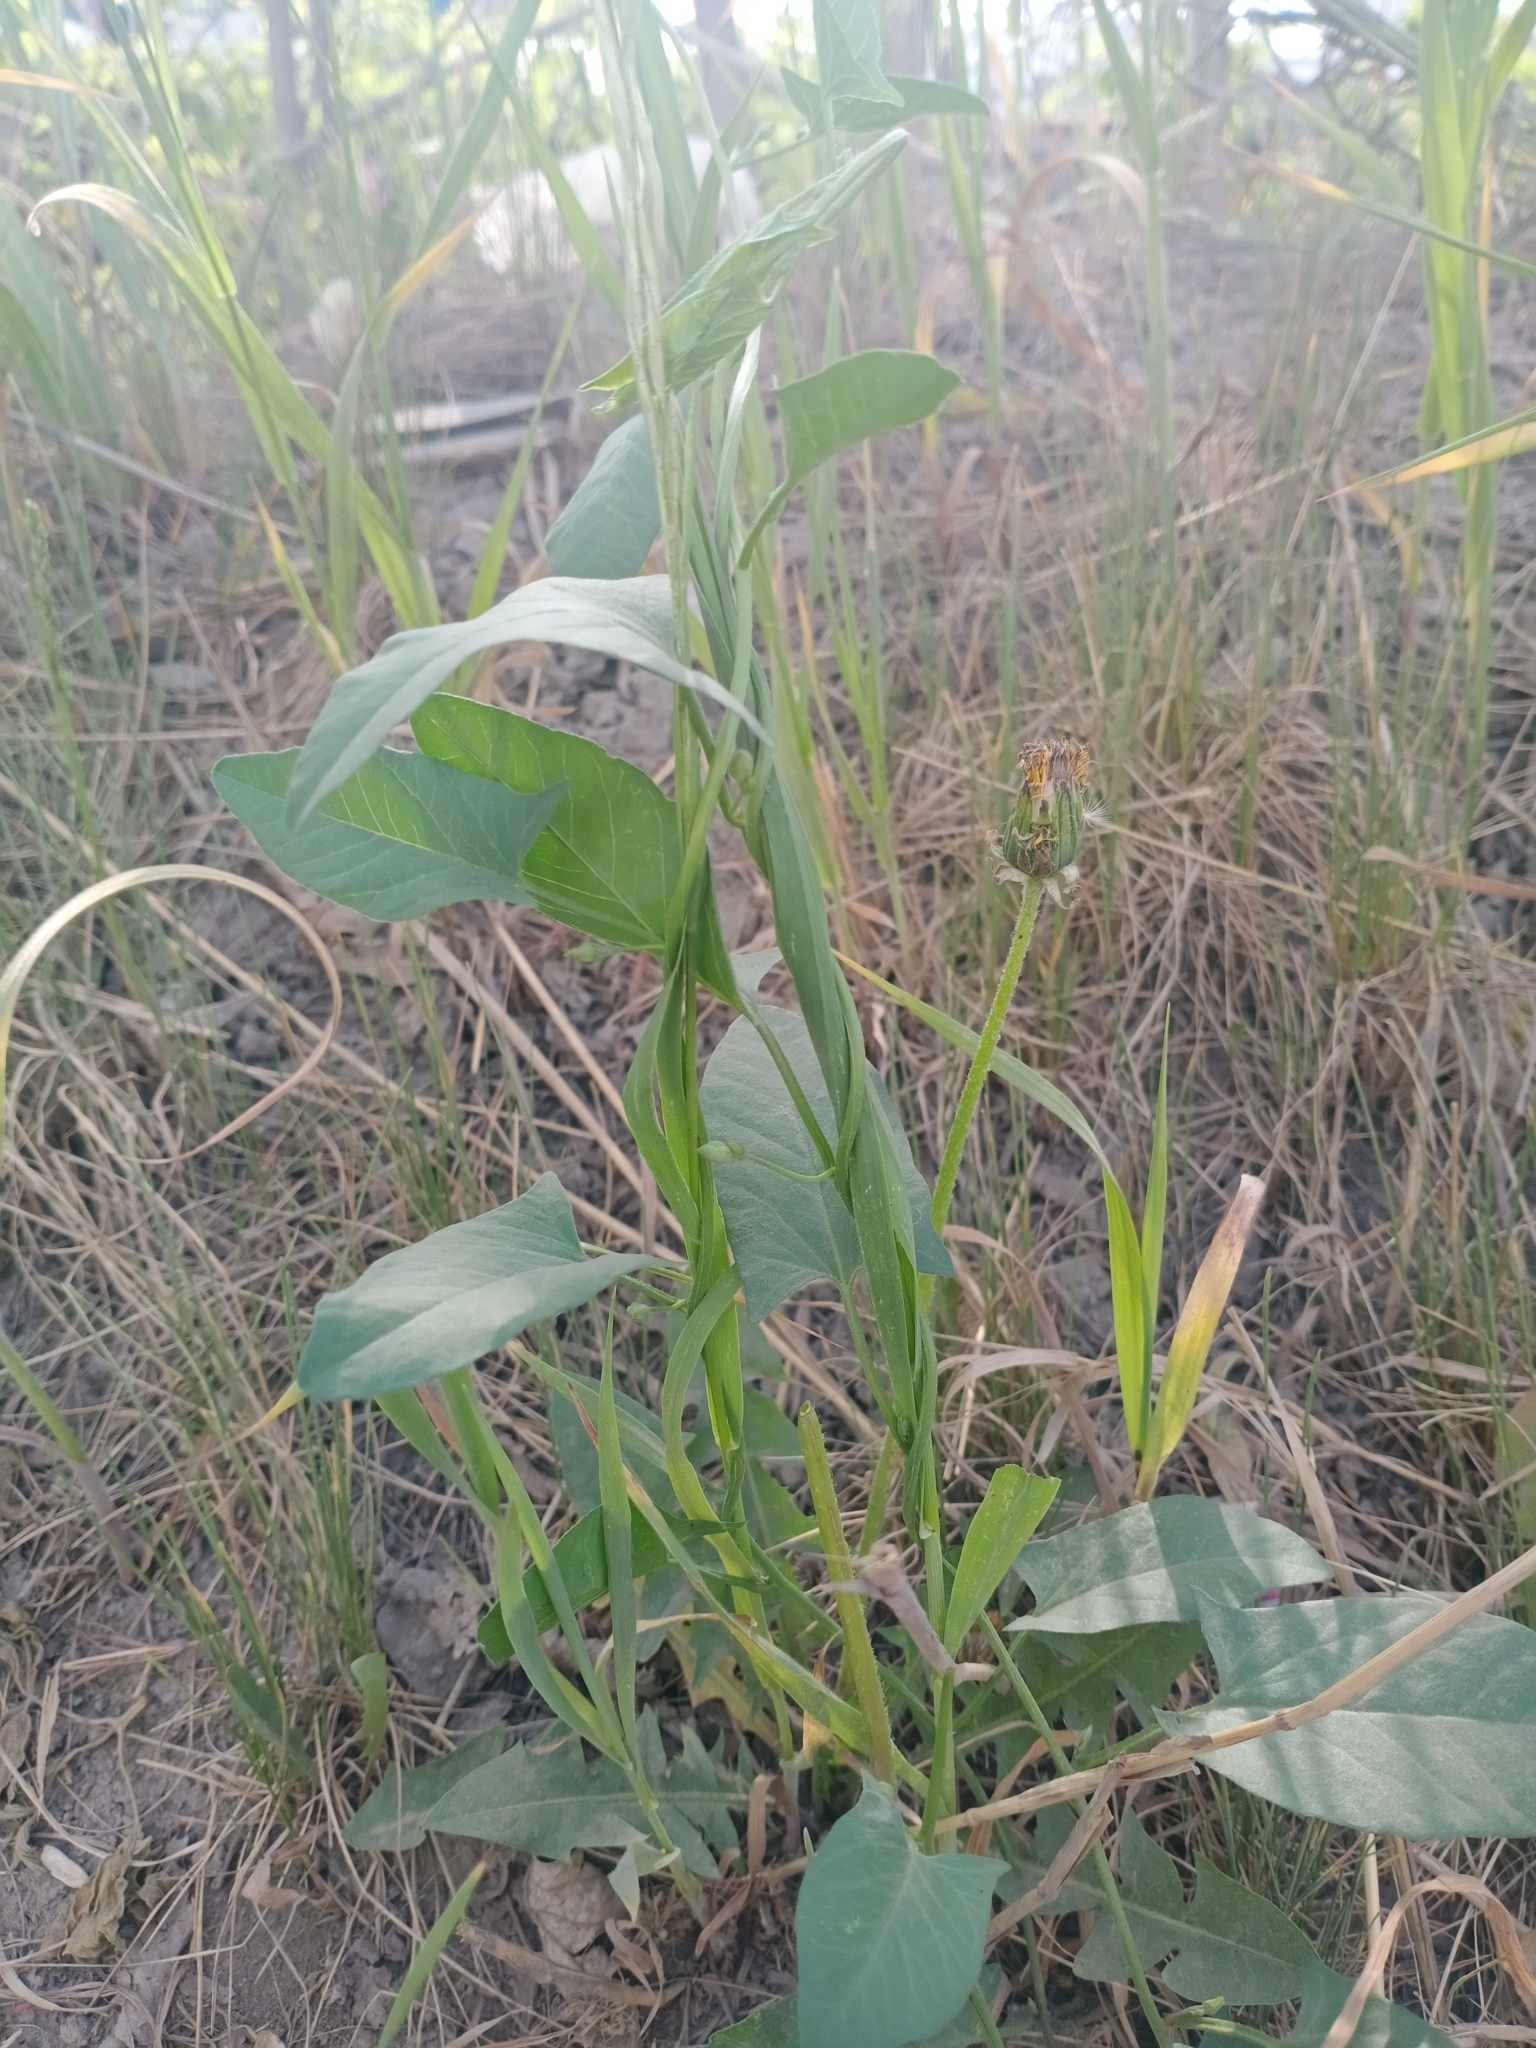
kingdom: Plantae
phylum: Tracheophyta
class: Magnoliopsida
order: Solanales
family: Convolvulaceae
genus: Convolvulus
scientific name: Convolvulus arvensis
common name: Field bindweed
